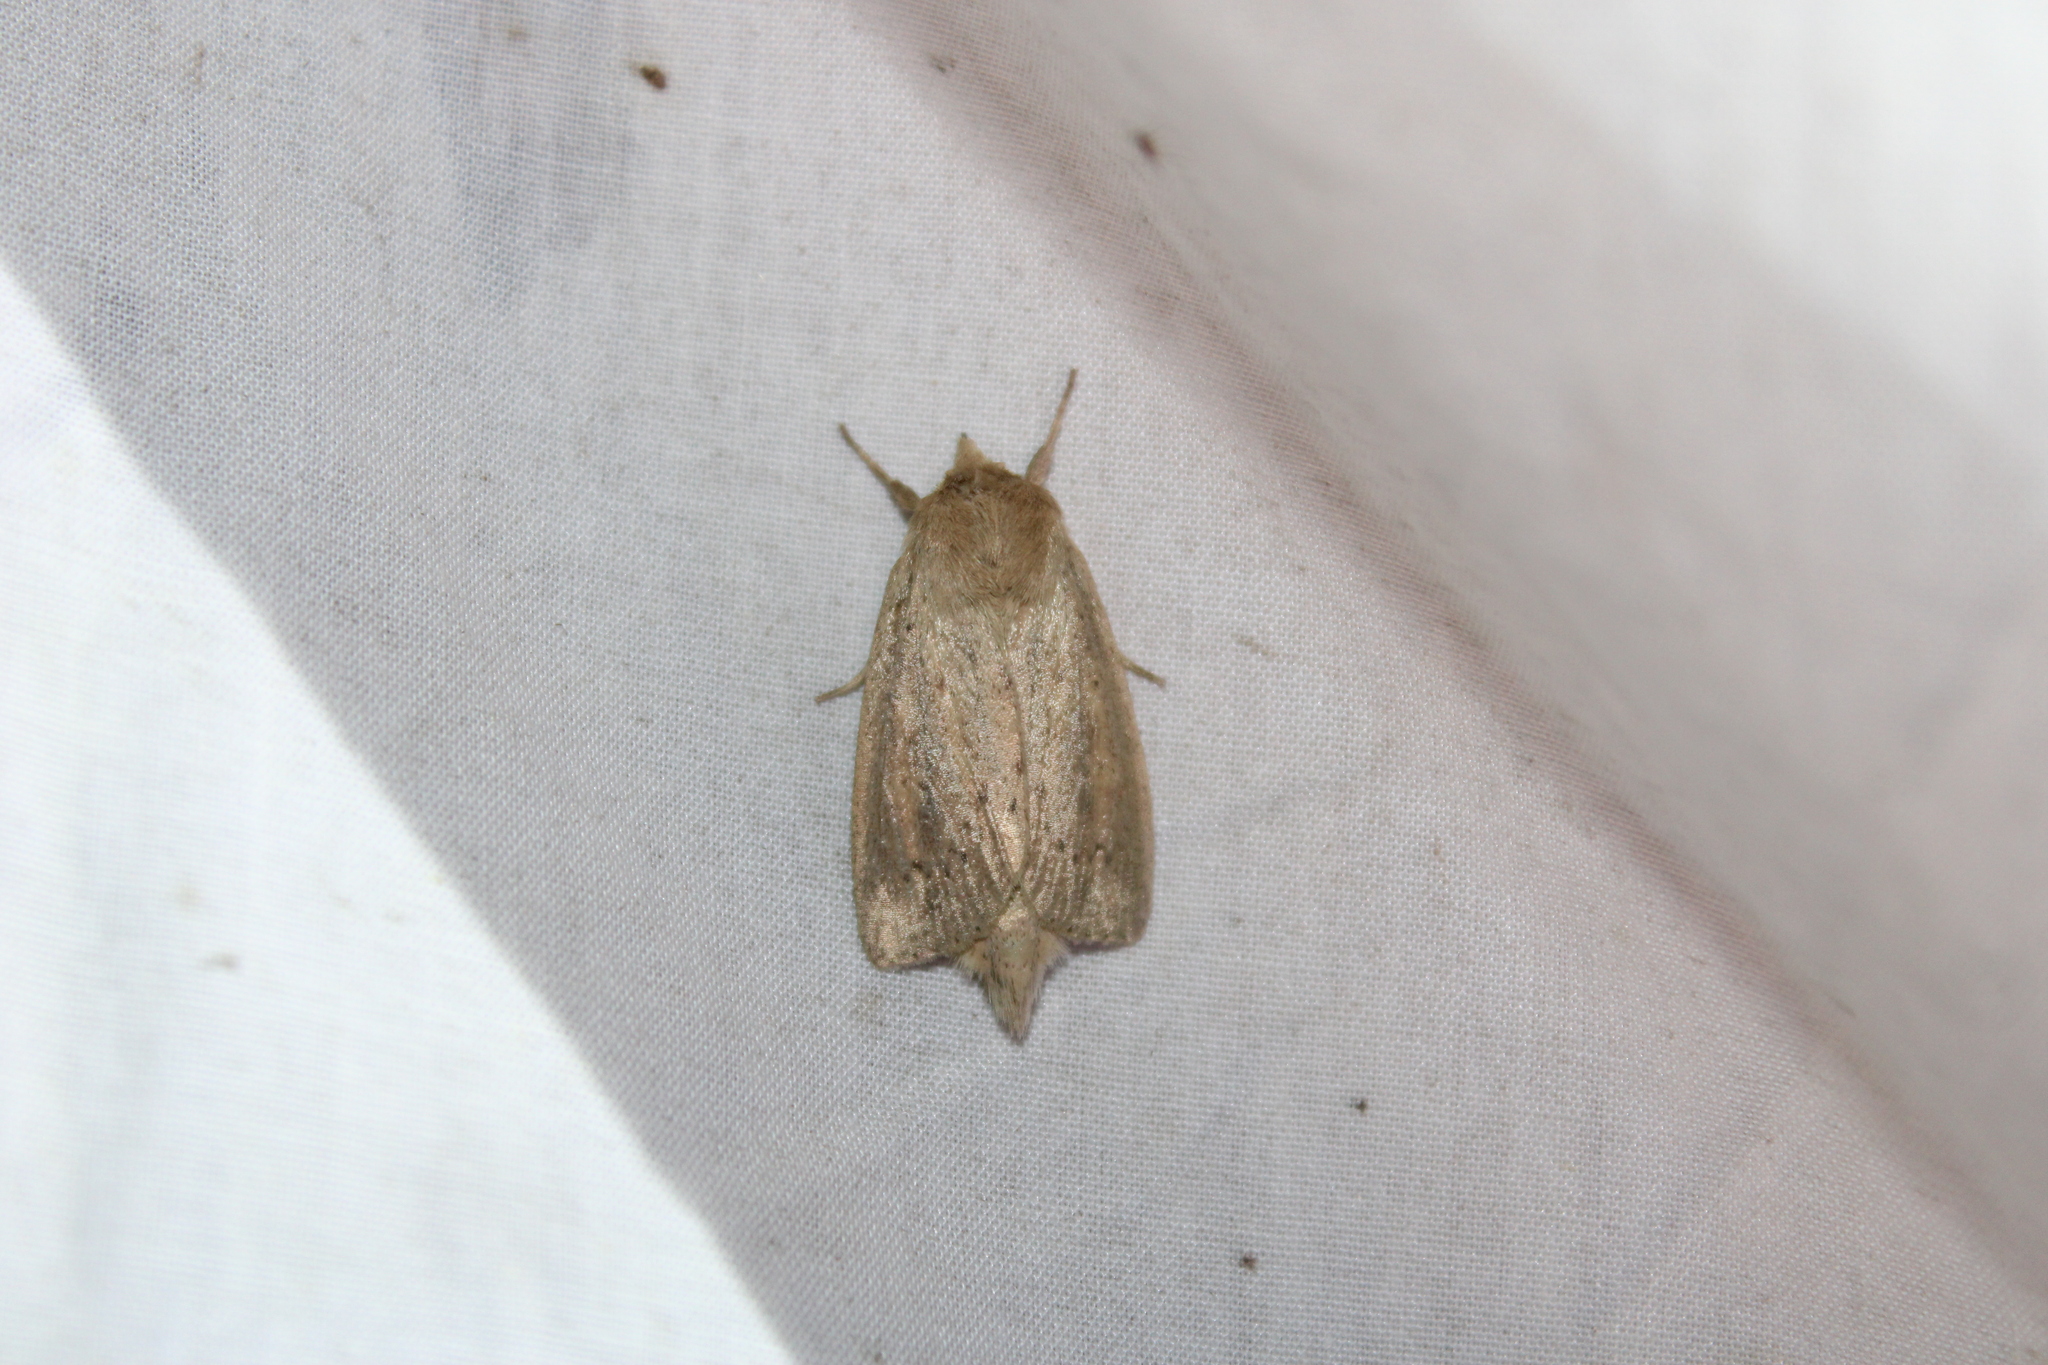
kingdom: Animalia
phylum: Arthropoda
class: Insecta
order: Lepidoptera
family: Noctuidae
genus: Globia
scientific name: Globia oblonga
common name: Oblong sedge borer moth
